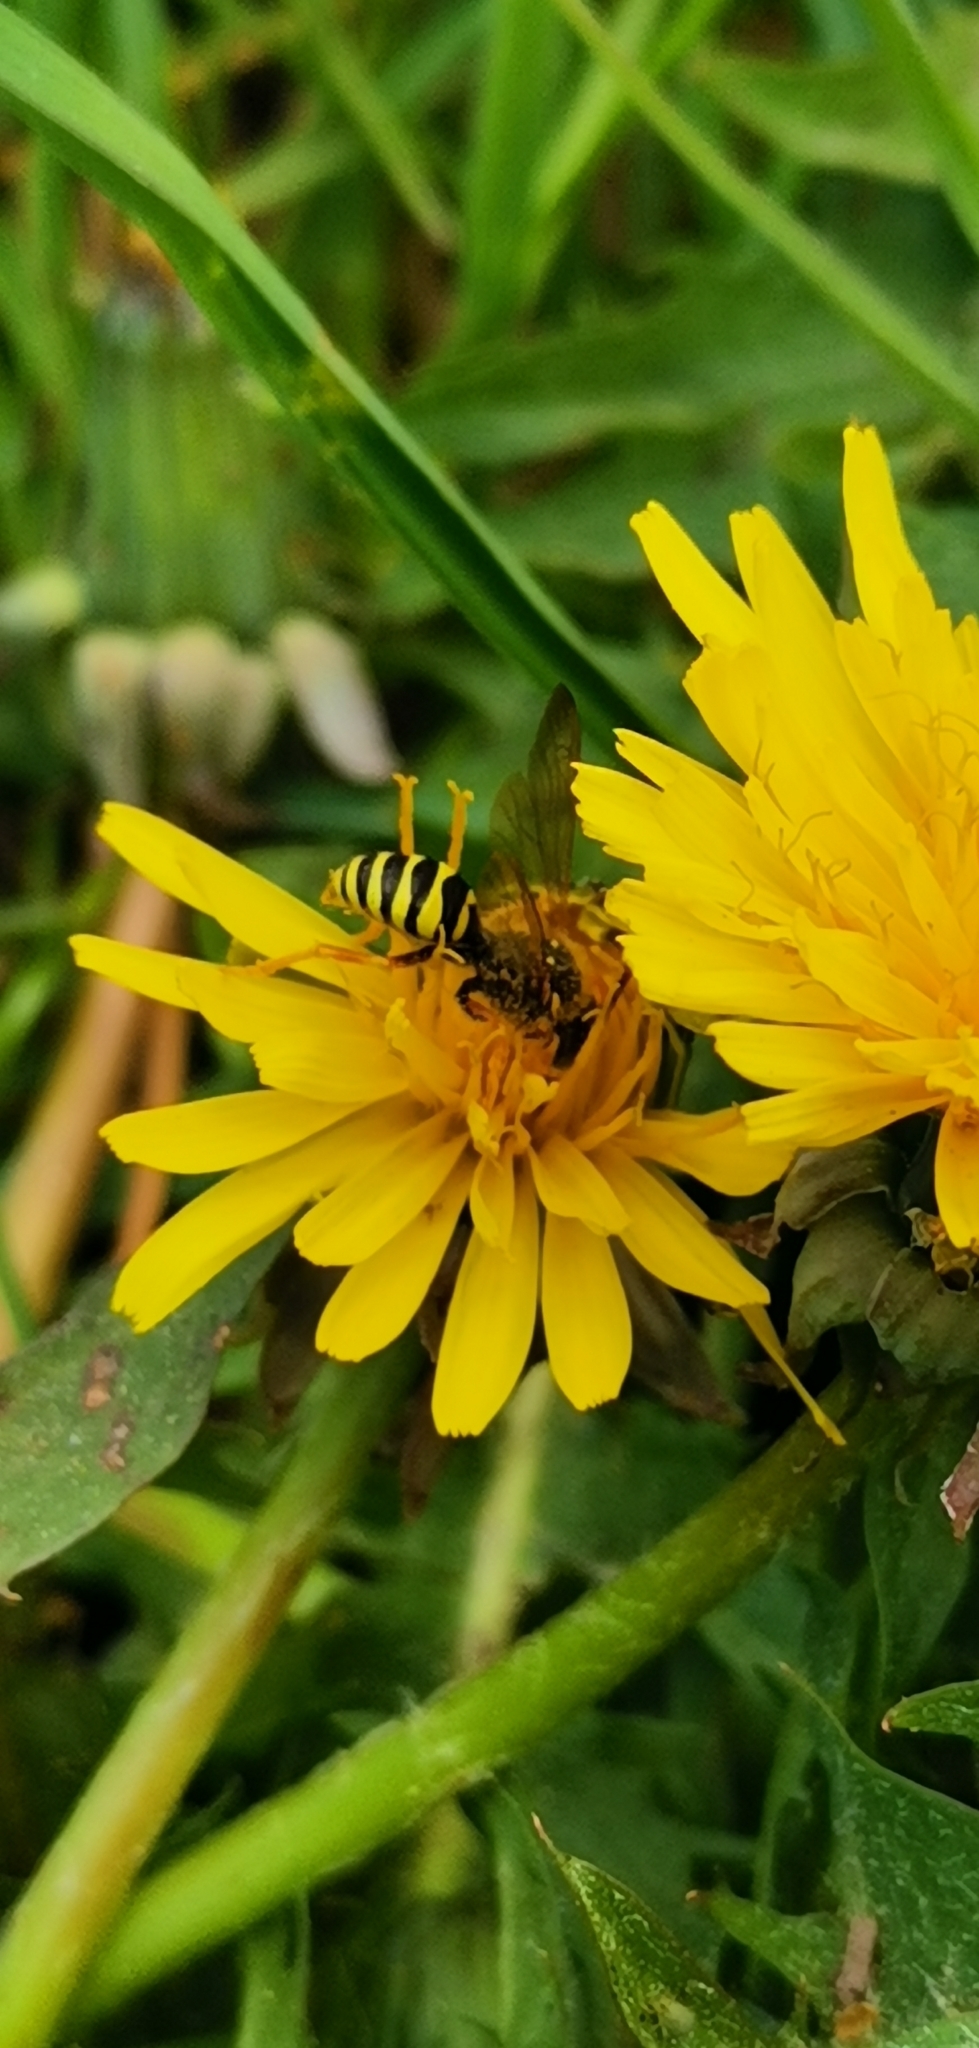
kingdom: Animalia
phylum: Arthropoda
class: Insecta
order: Hymenoptera
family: Apidae
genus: Nomada
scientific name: Nomada goodeniana
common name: Gooden's nomad bee
